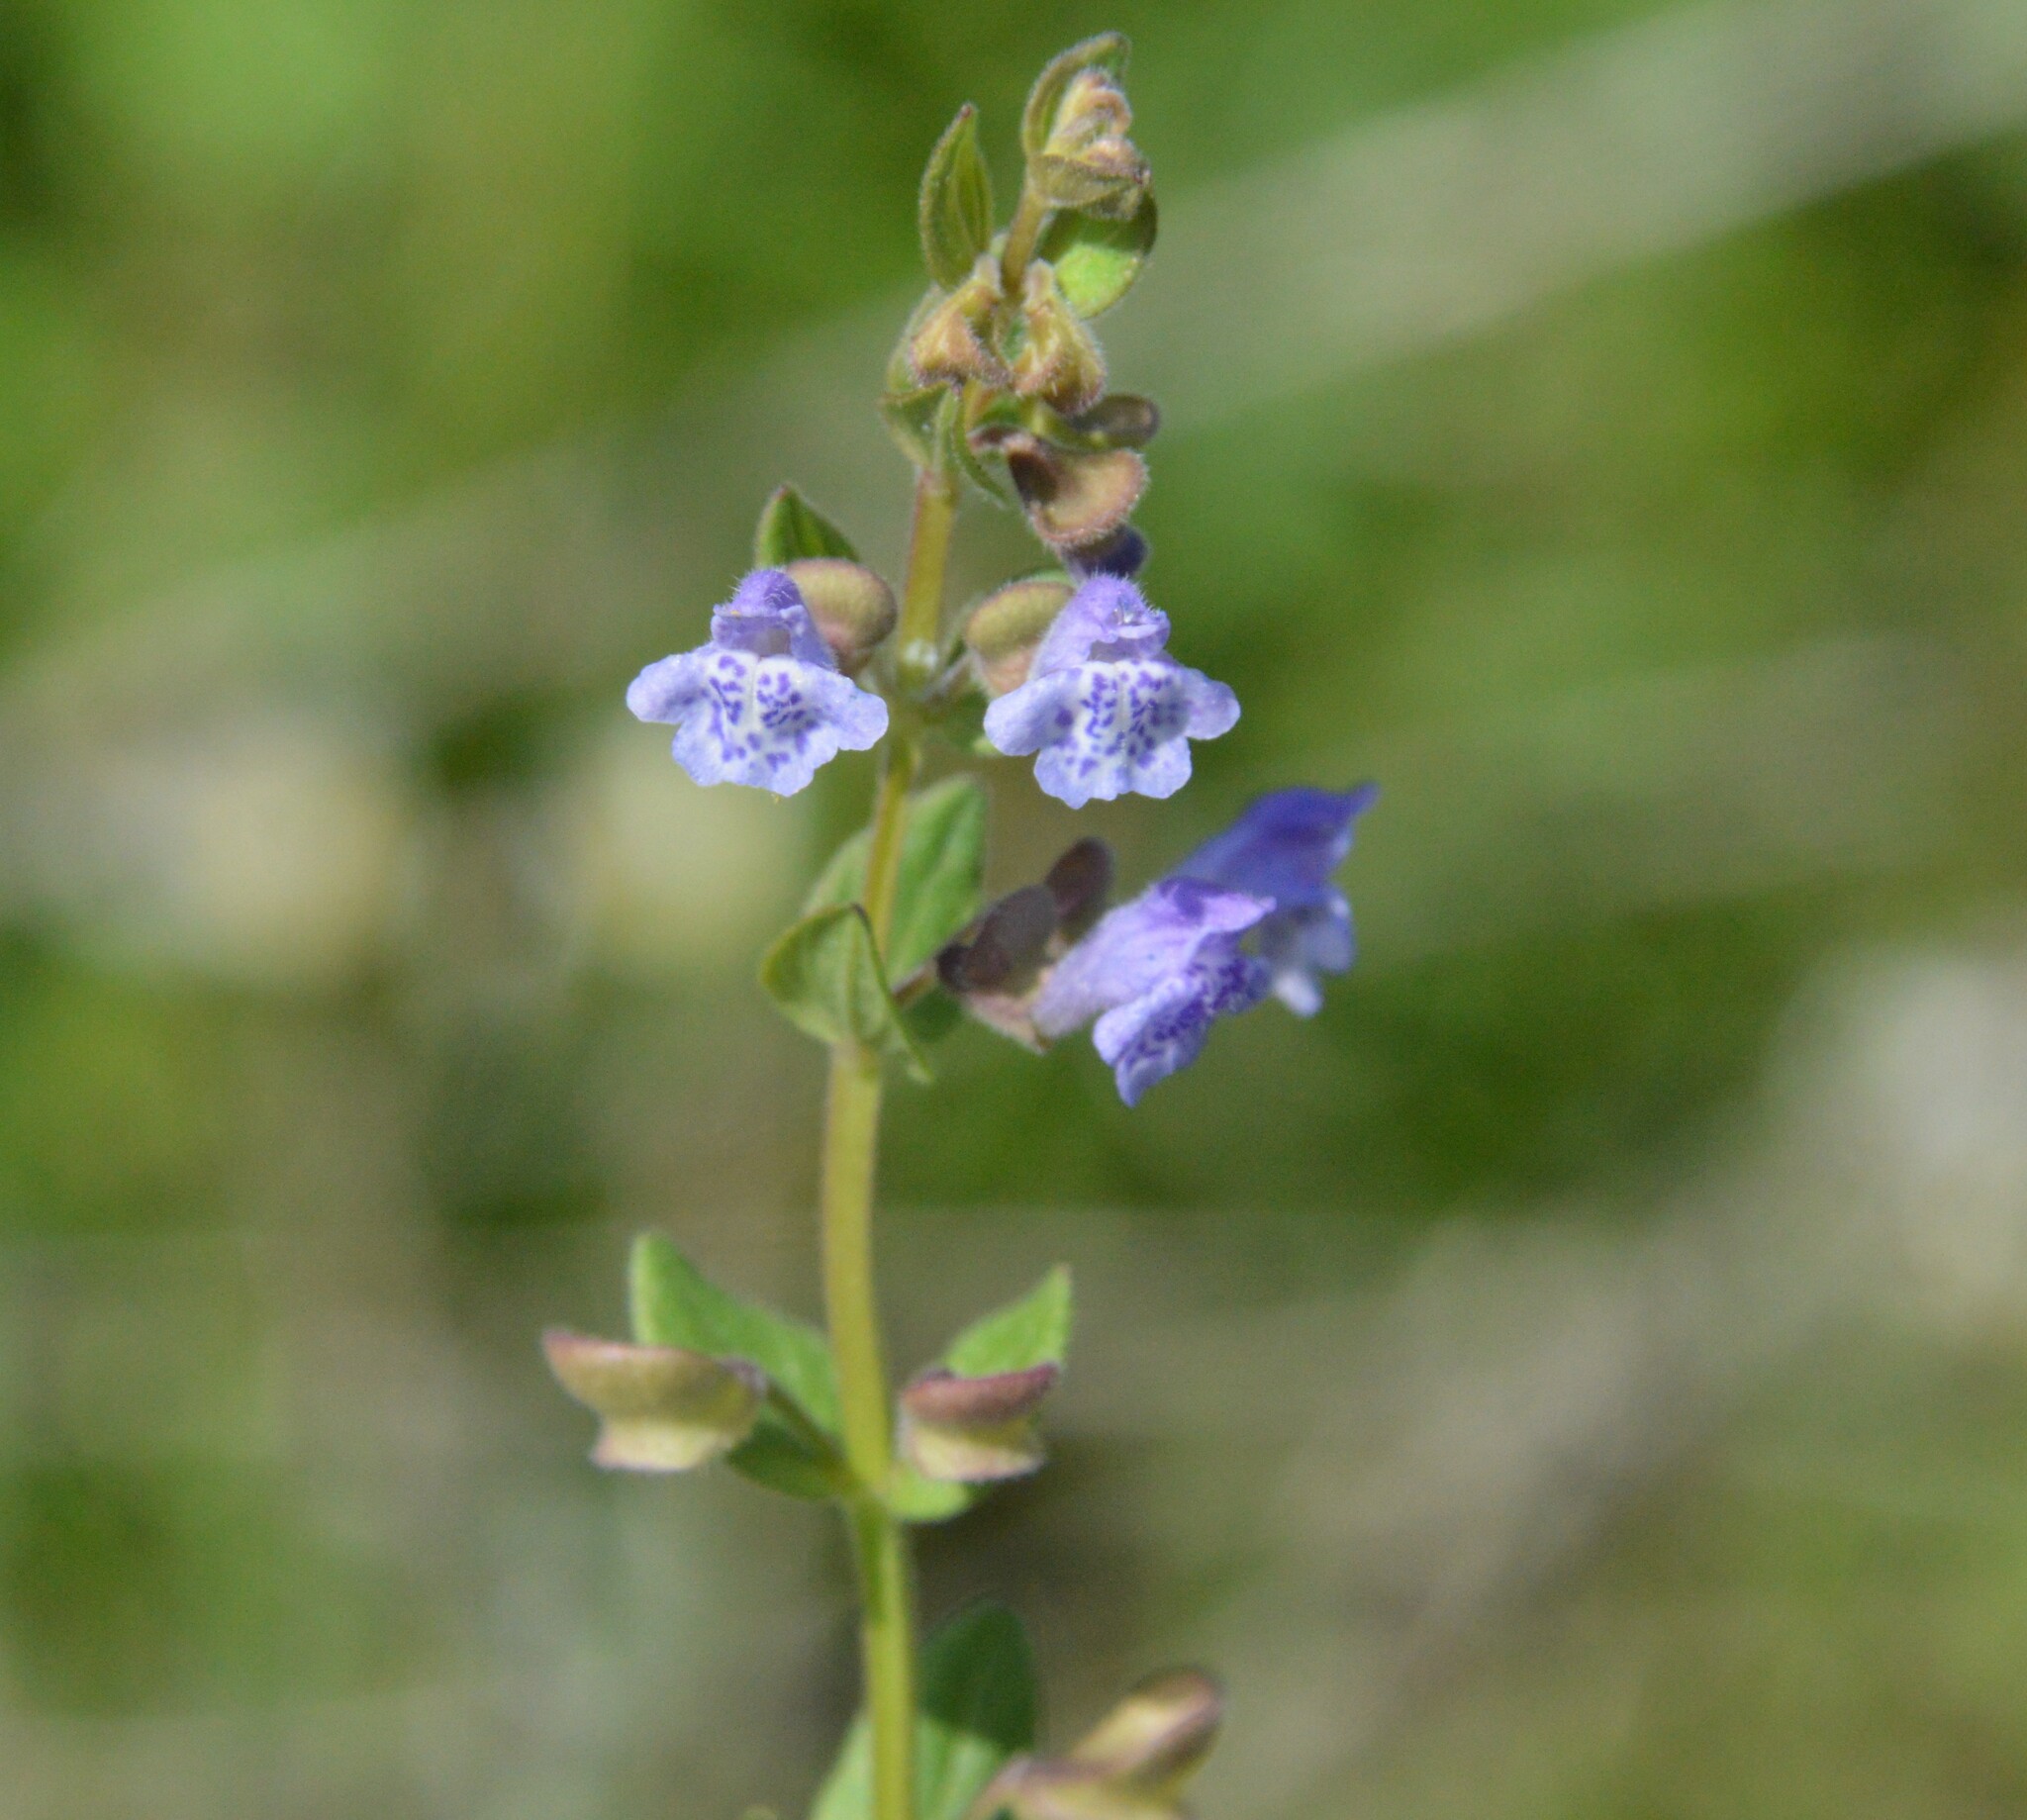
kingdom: Plantae
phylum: Tracheophyta
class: Magnoliopsida
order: Lamiales
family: Lamiaceae
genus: Scutellaria
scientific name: Scutellaria parvula
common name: Little scullcap
